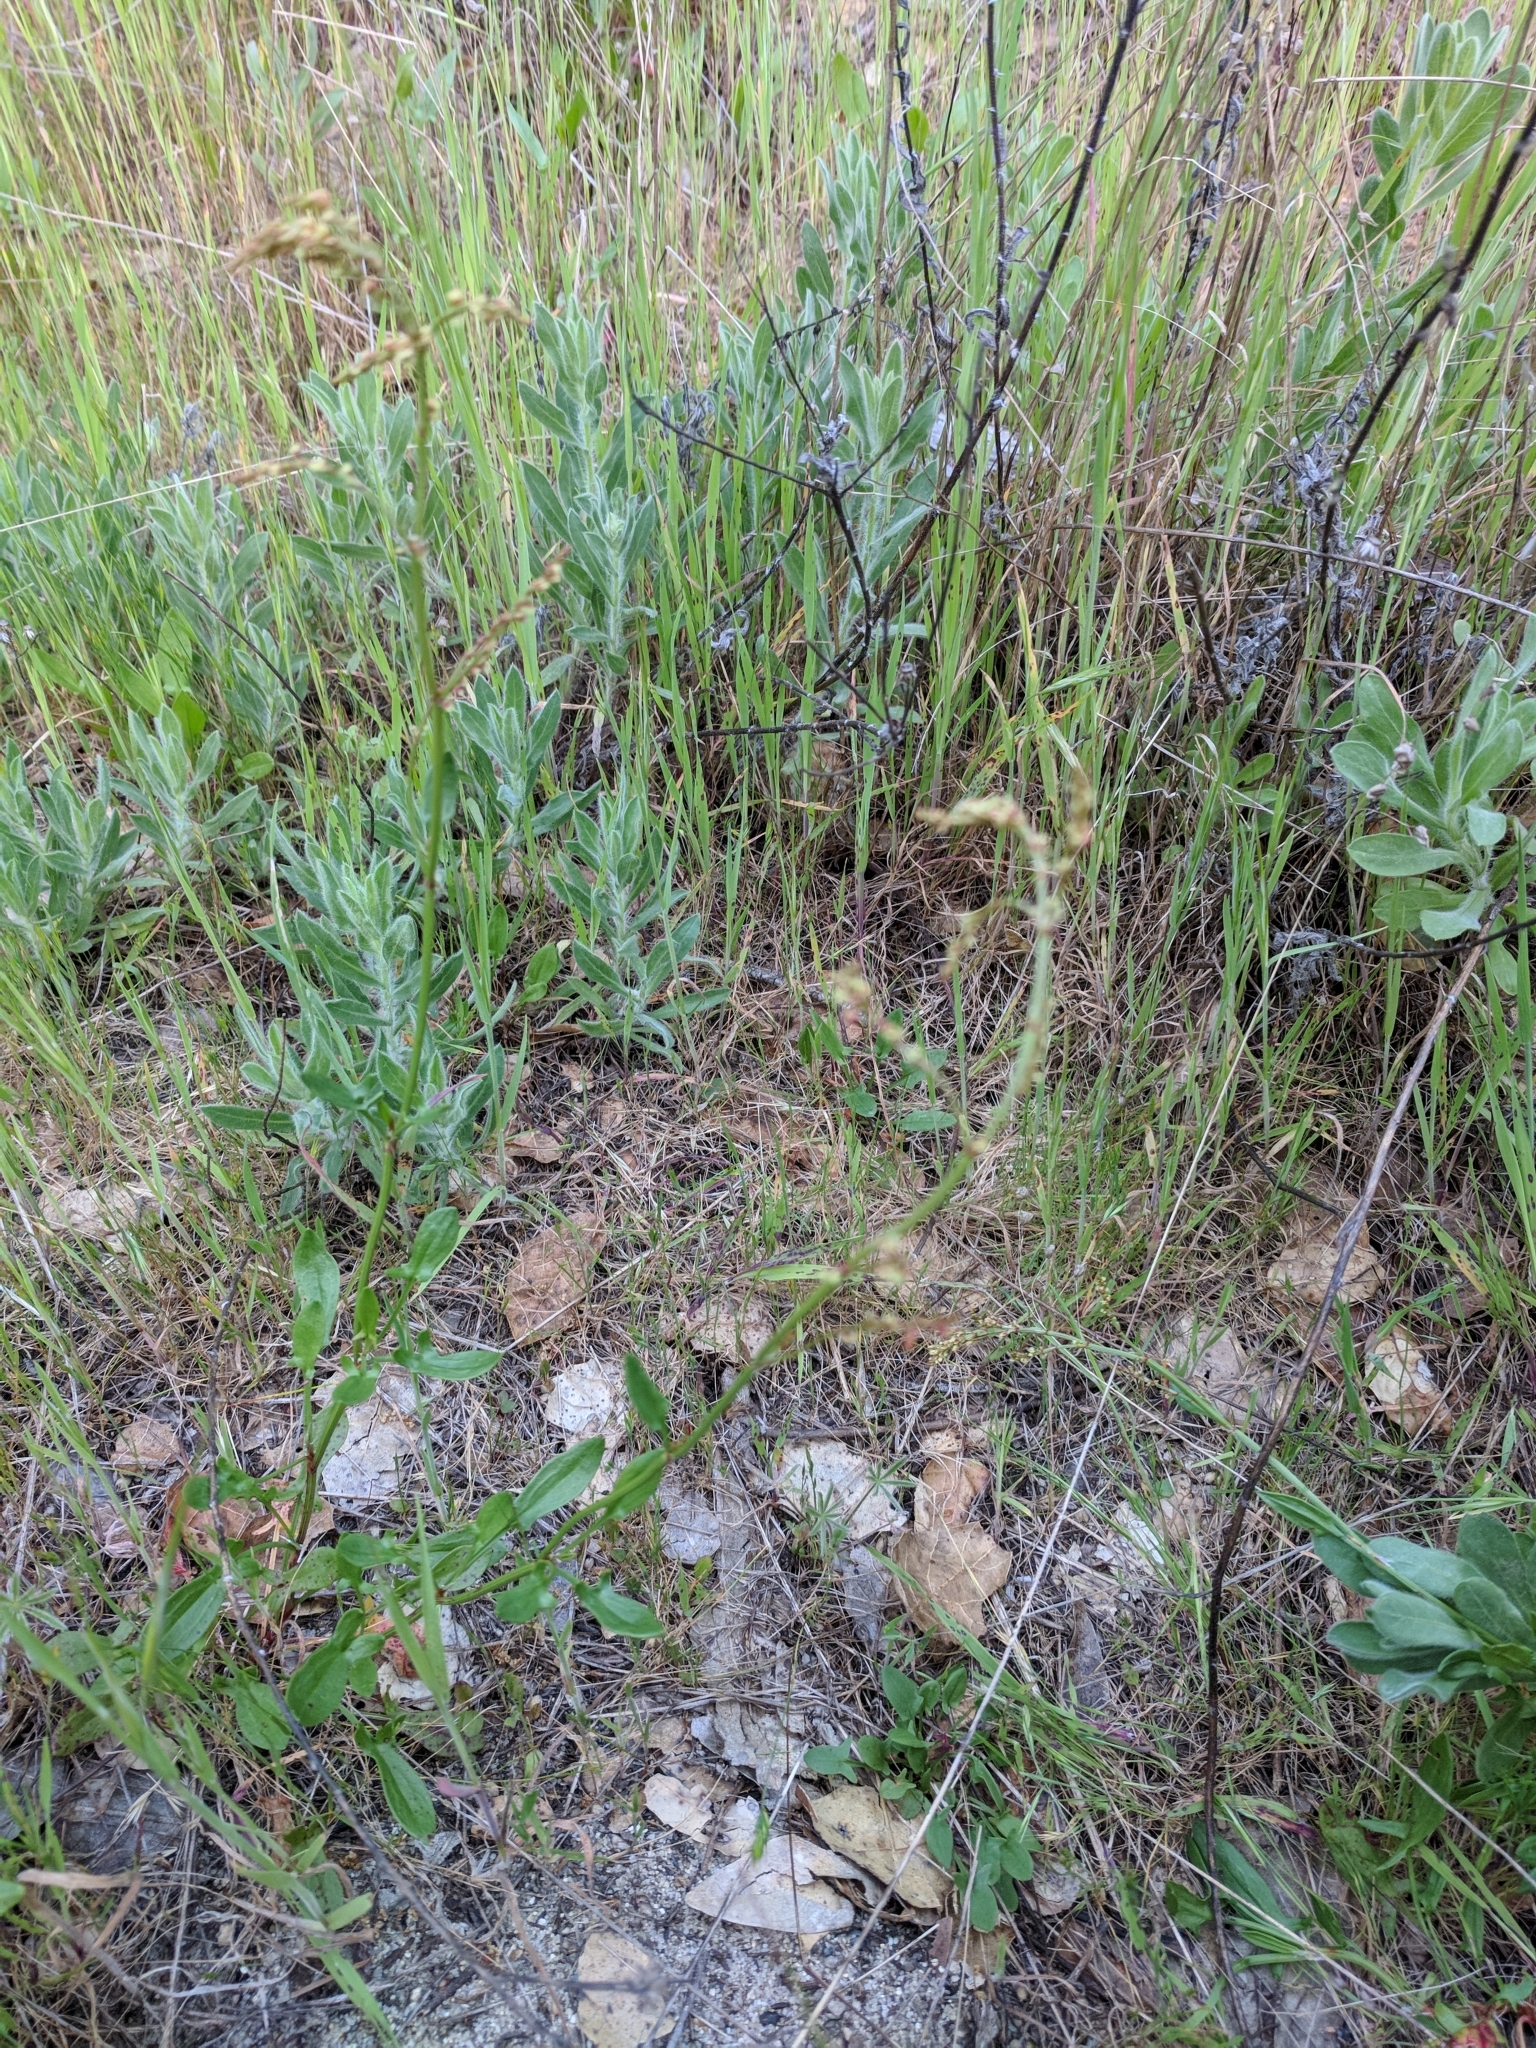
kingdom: Plantae
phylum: Tracheophyta
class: Magnoliopsida
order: Caryophyllales
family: Polygonaceae
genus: Rumex
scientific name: Rumex acetosella
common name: Common sheep sorrel
